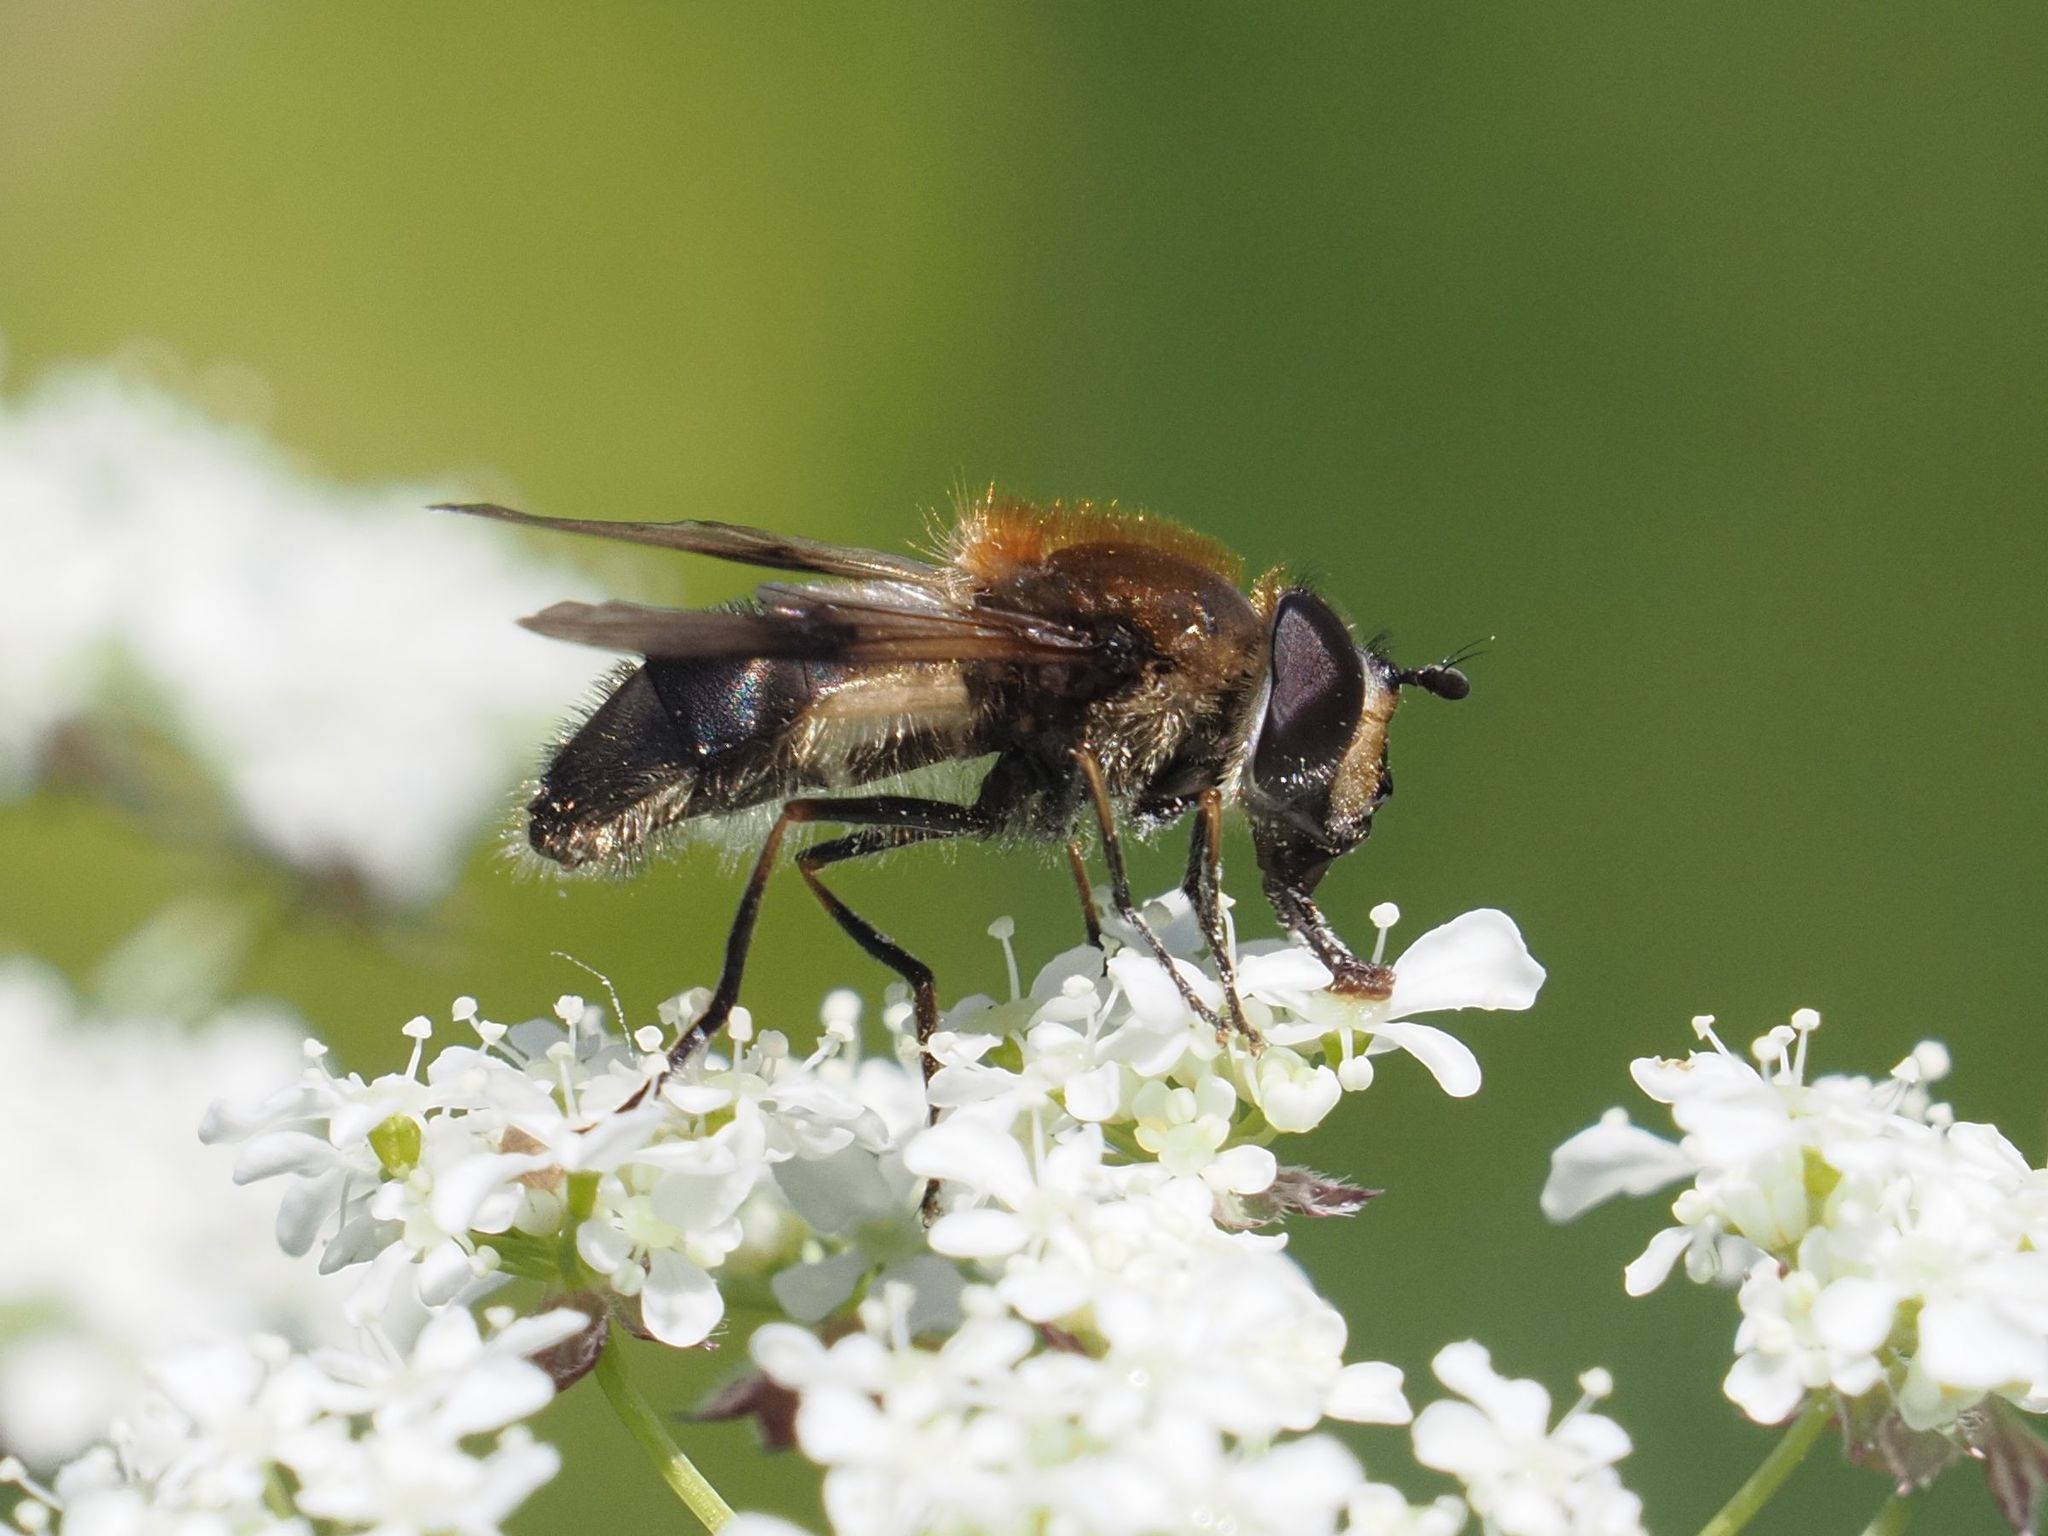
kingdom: Animalia
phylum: Arthropoda
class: Insecta
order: Diptera
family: Syrphidae
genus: Leucozona
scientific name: Leucozona lucorum
